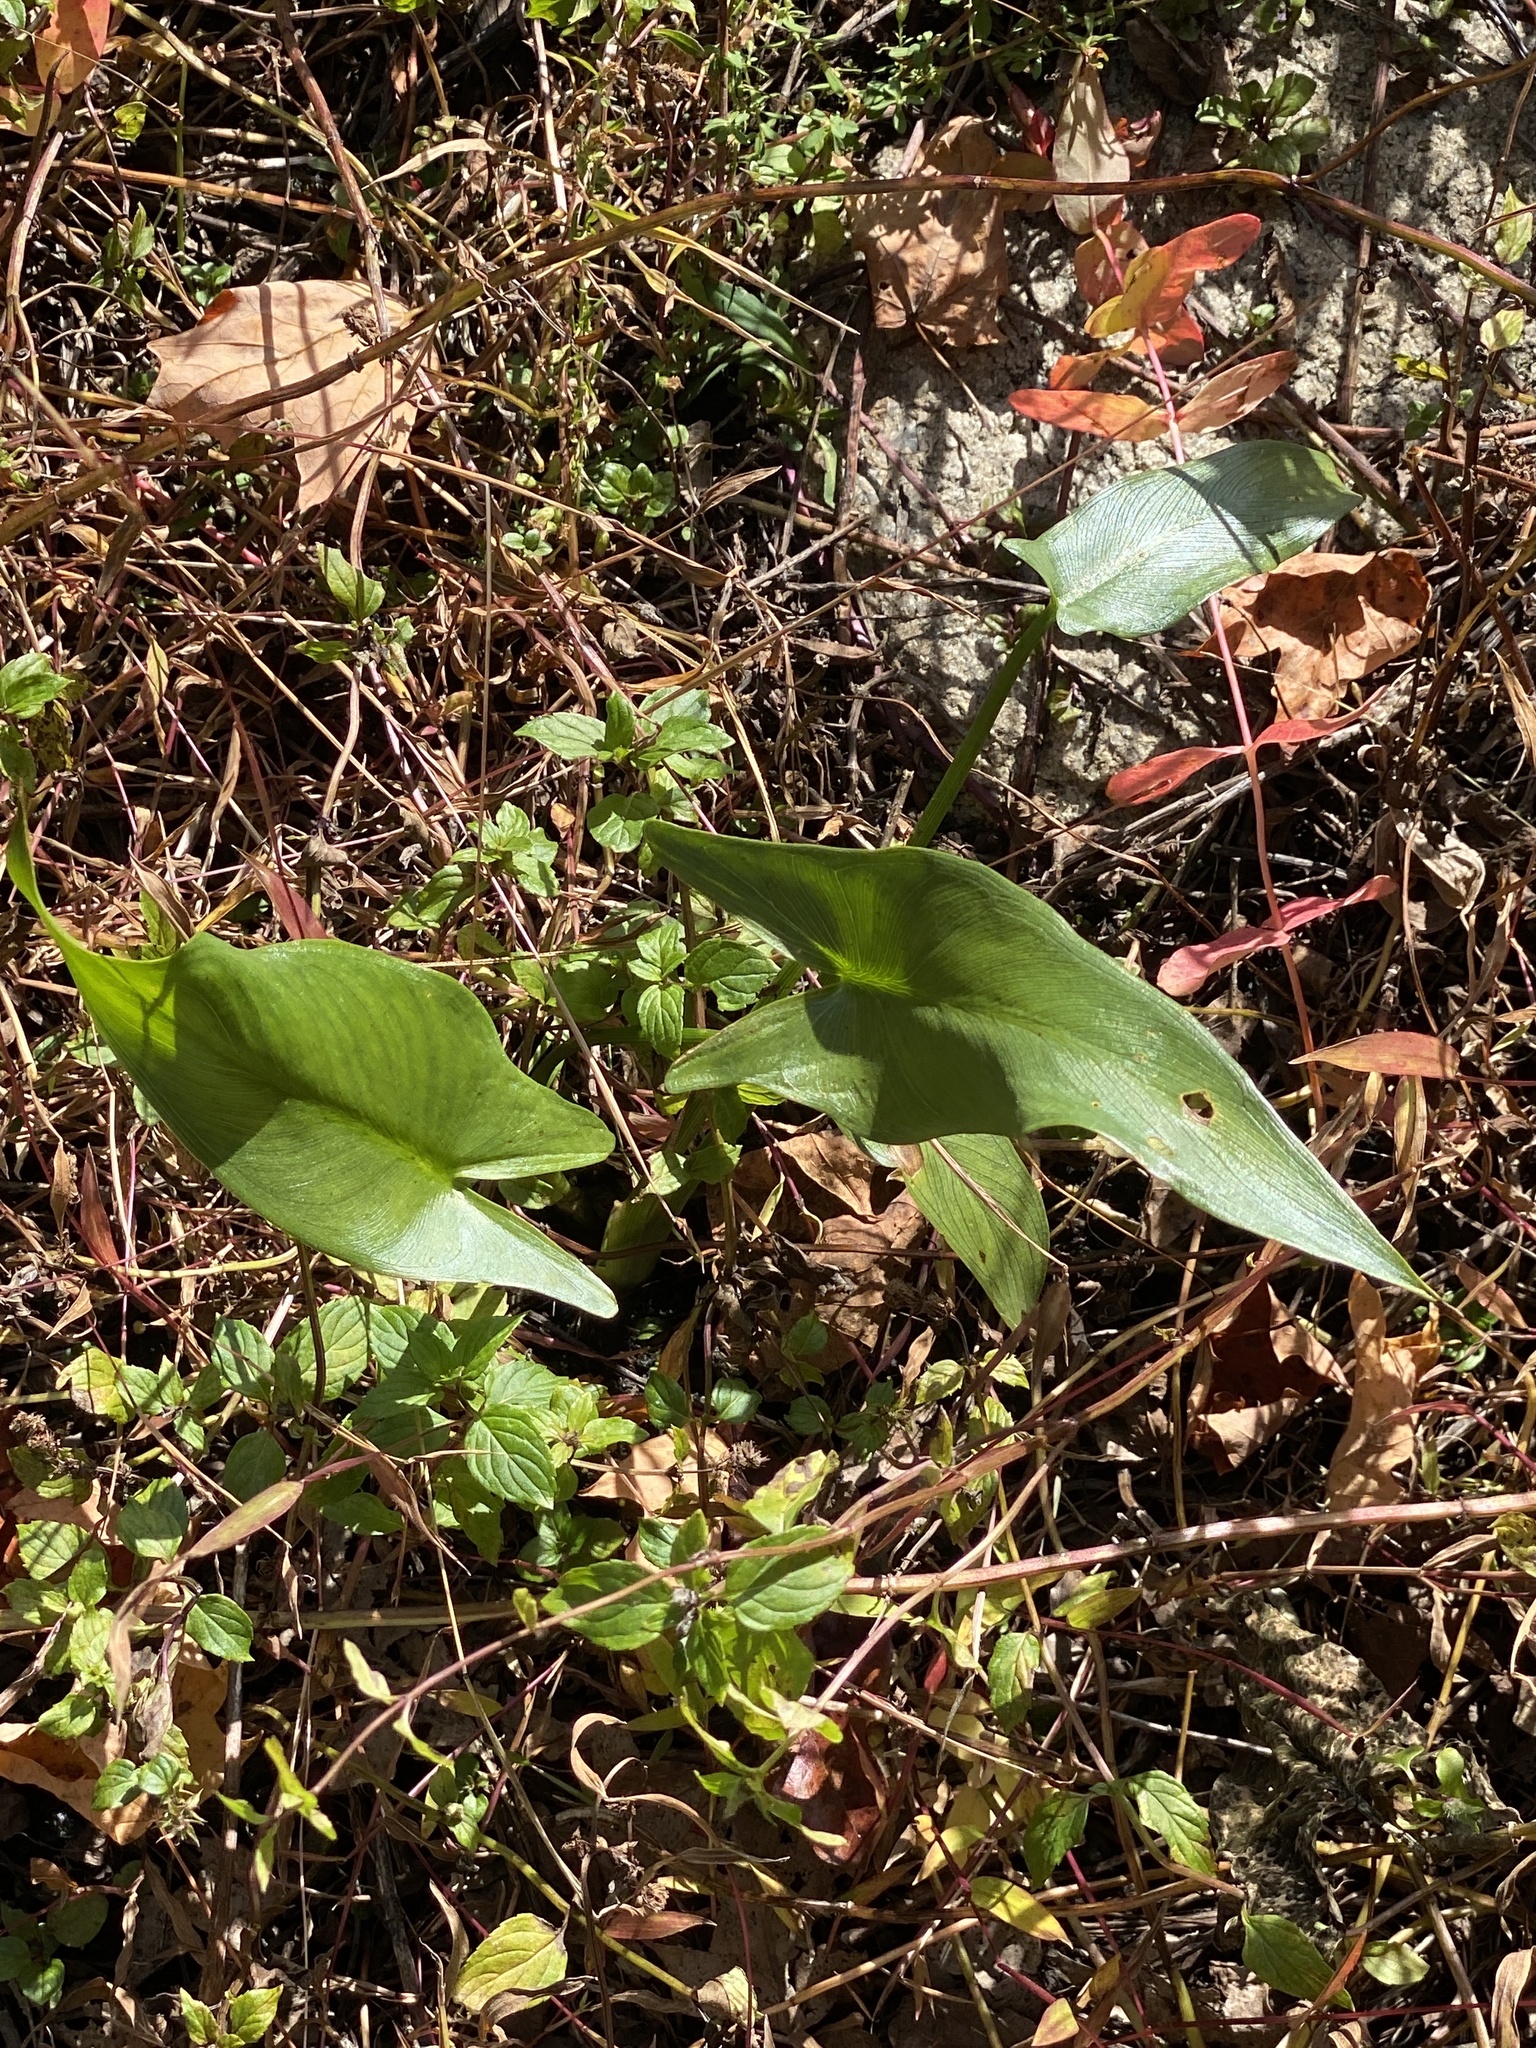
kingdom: Plantae
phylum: Tracheophyta
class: Liliopsida
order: Alismatales
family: Araceae
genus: Peltandra
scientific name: Peltandra virginica
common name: Arrow arum
